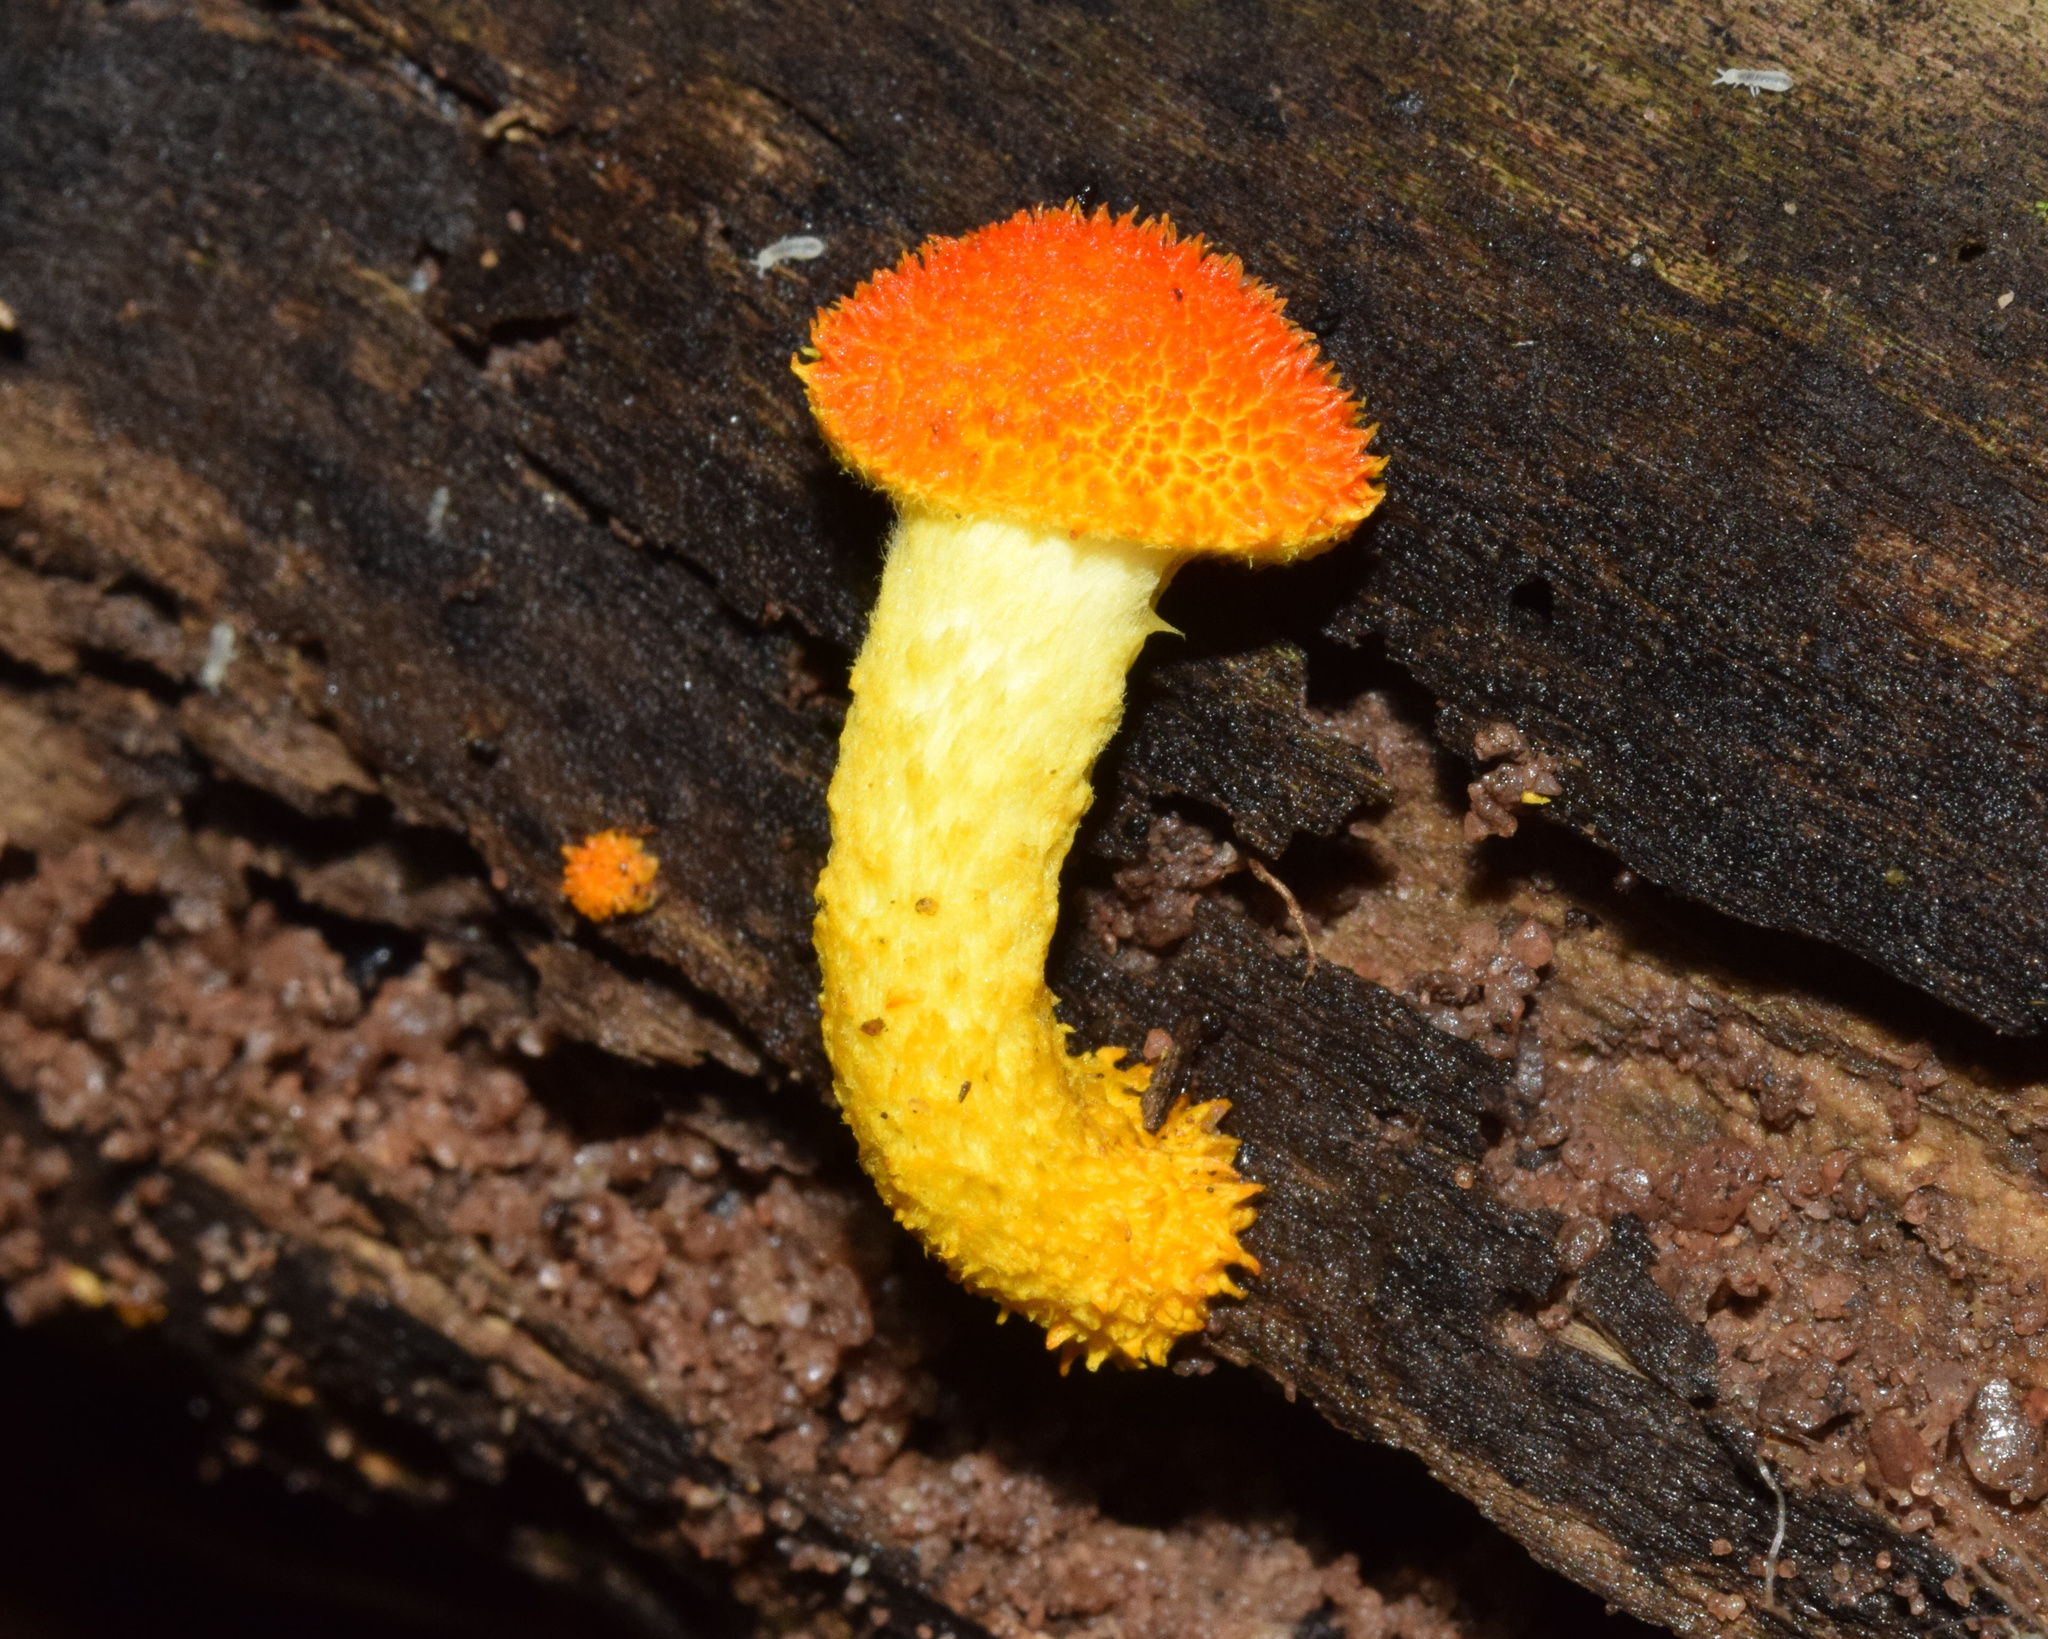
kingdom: Fungi
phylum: Basidiomycota
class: Agaricomycetes
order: Agaricales
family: Physalacriaceae
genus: Cyptotrama
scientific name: Cyptotrama asprata
